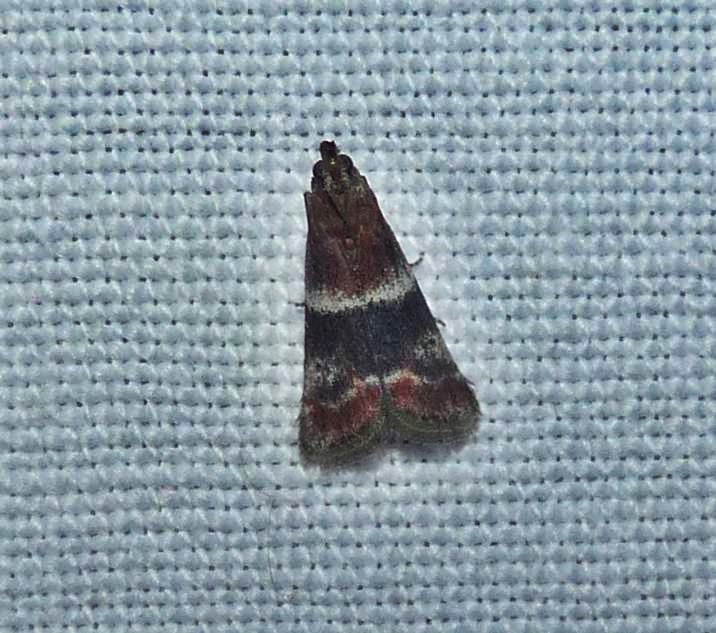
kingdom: Animalia
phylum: Arthropoda
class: Insecta
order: Lepidoptera
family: Pyralidae
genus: Moodna
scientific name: Moodna ostrinella
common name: Darker moodna moth
